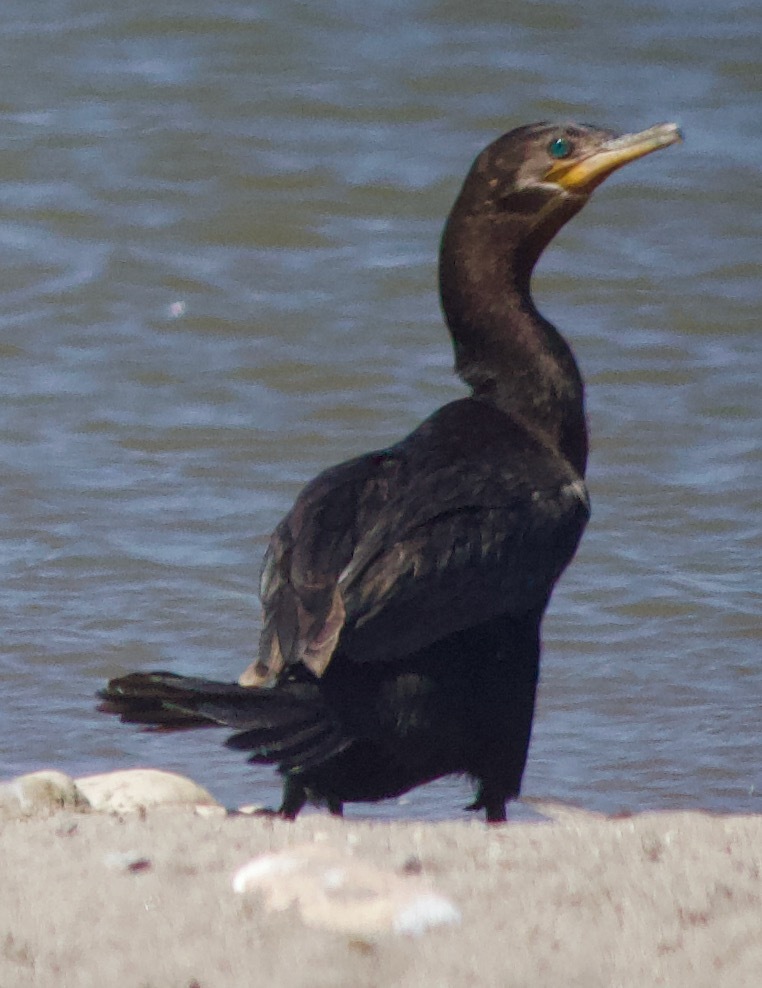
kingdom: Animalia
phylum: Chordata
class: Aves
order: Suliformes
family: Phalacrocoracidae
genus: Phalacrocorax
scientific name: Phalacrocorax brasilianus
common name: Neotropic cormorant
